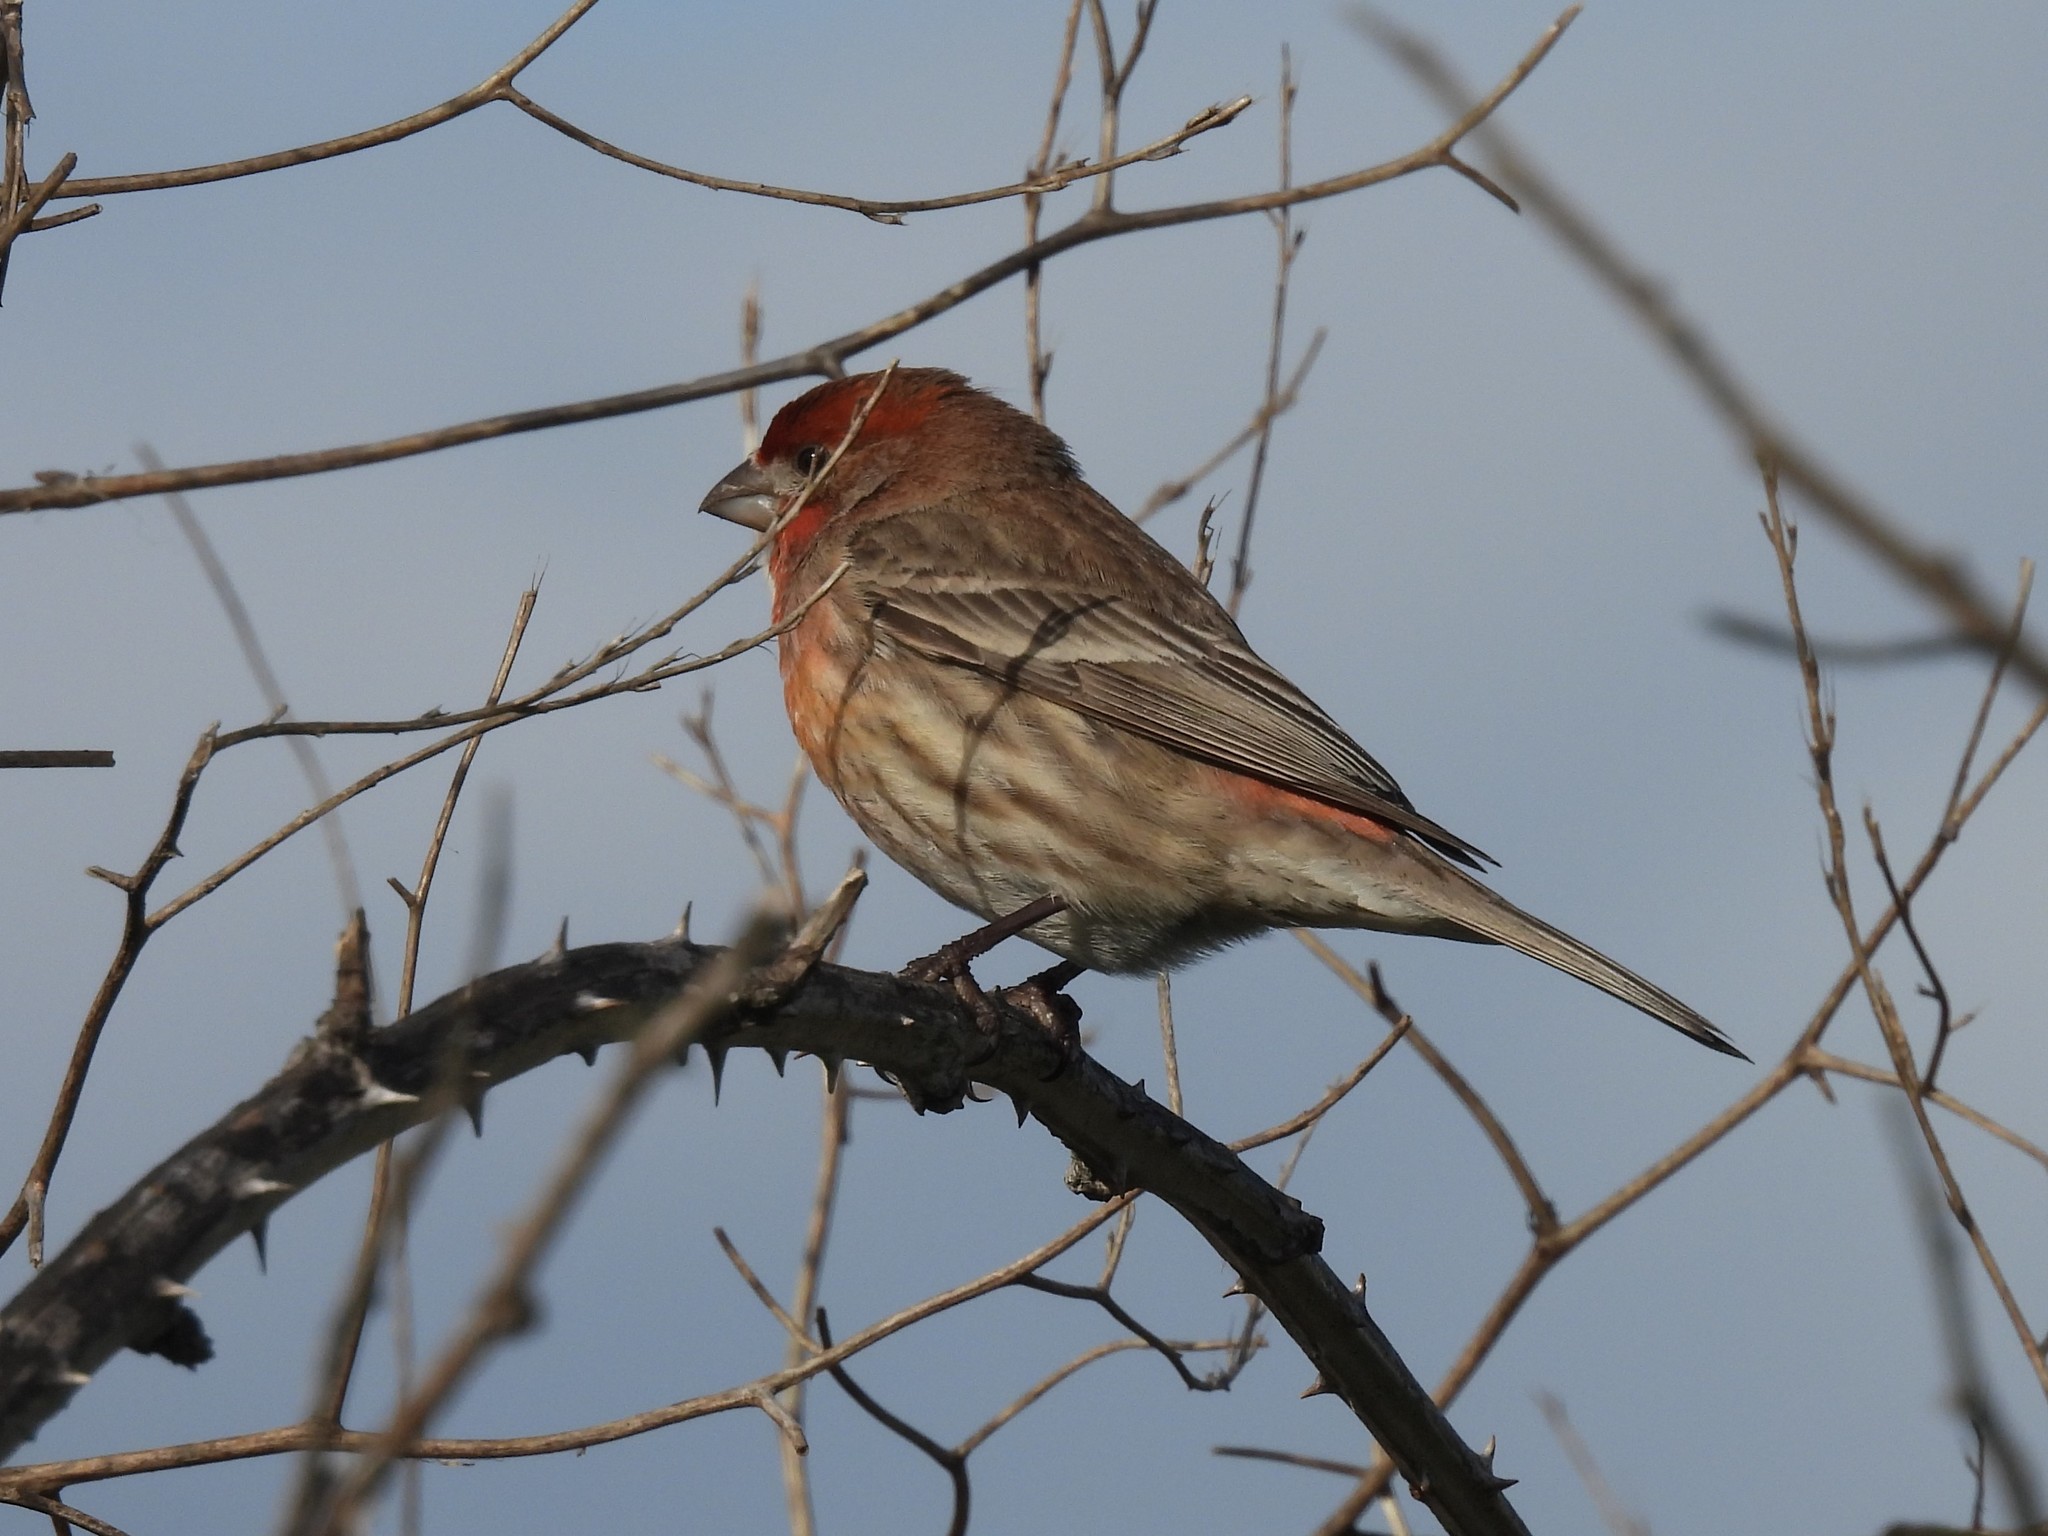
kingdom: Animalia
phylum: Chordata
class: Aves
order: Passeriformes
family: Fringillidae
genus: Haemorhous
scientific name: Haemorhous mexicanus
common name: House finch
